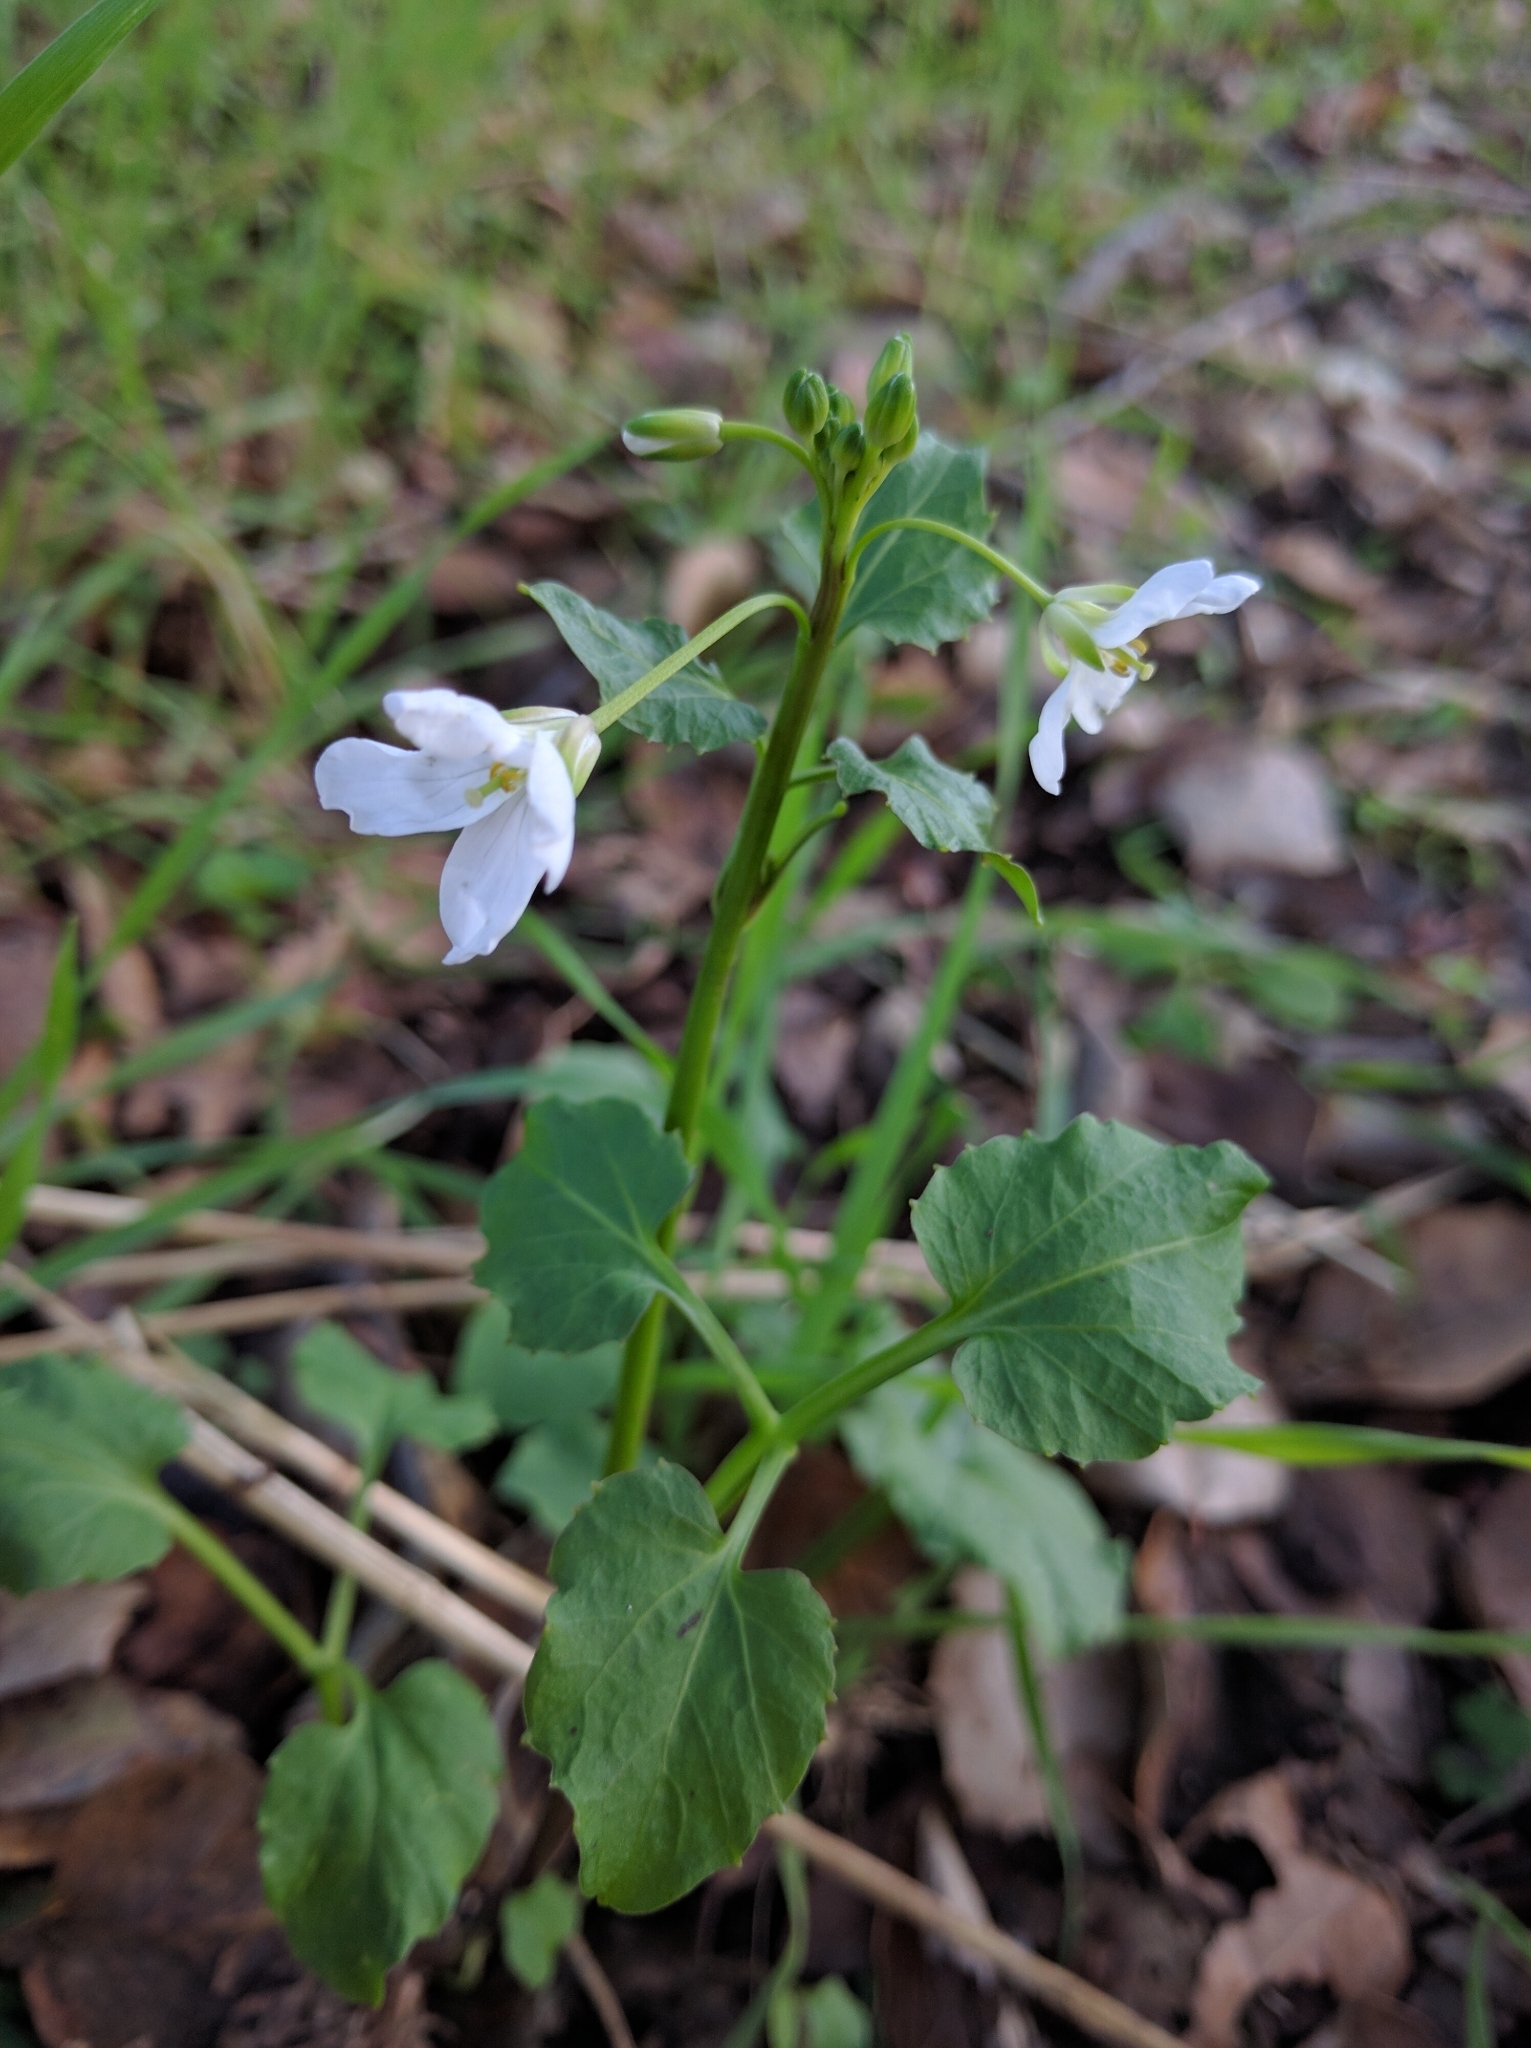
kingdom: Plantae
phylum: Tracheophyta
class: Magnoliopsida
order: Brassicales
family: Brassicaceae
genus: Cardamine
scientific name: Cardamine californica
